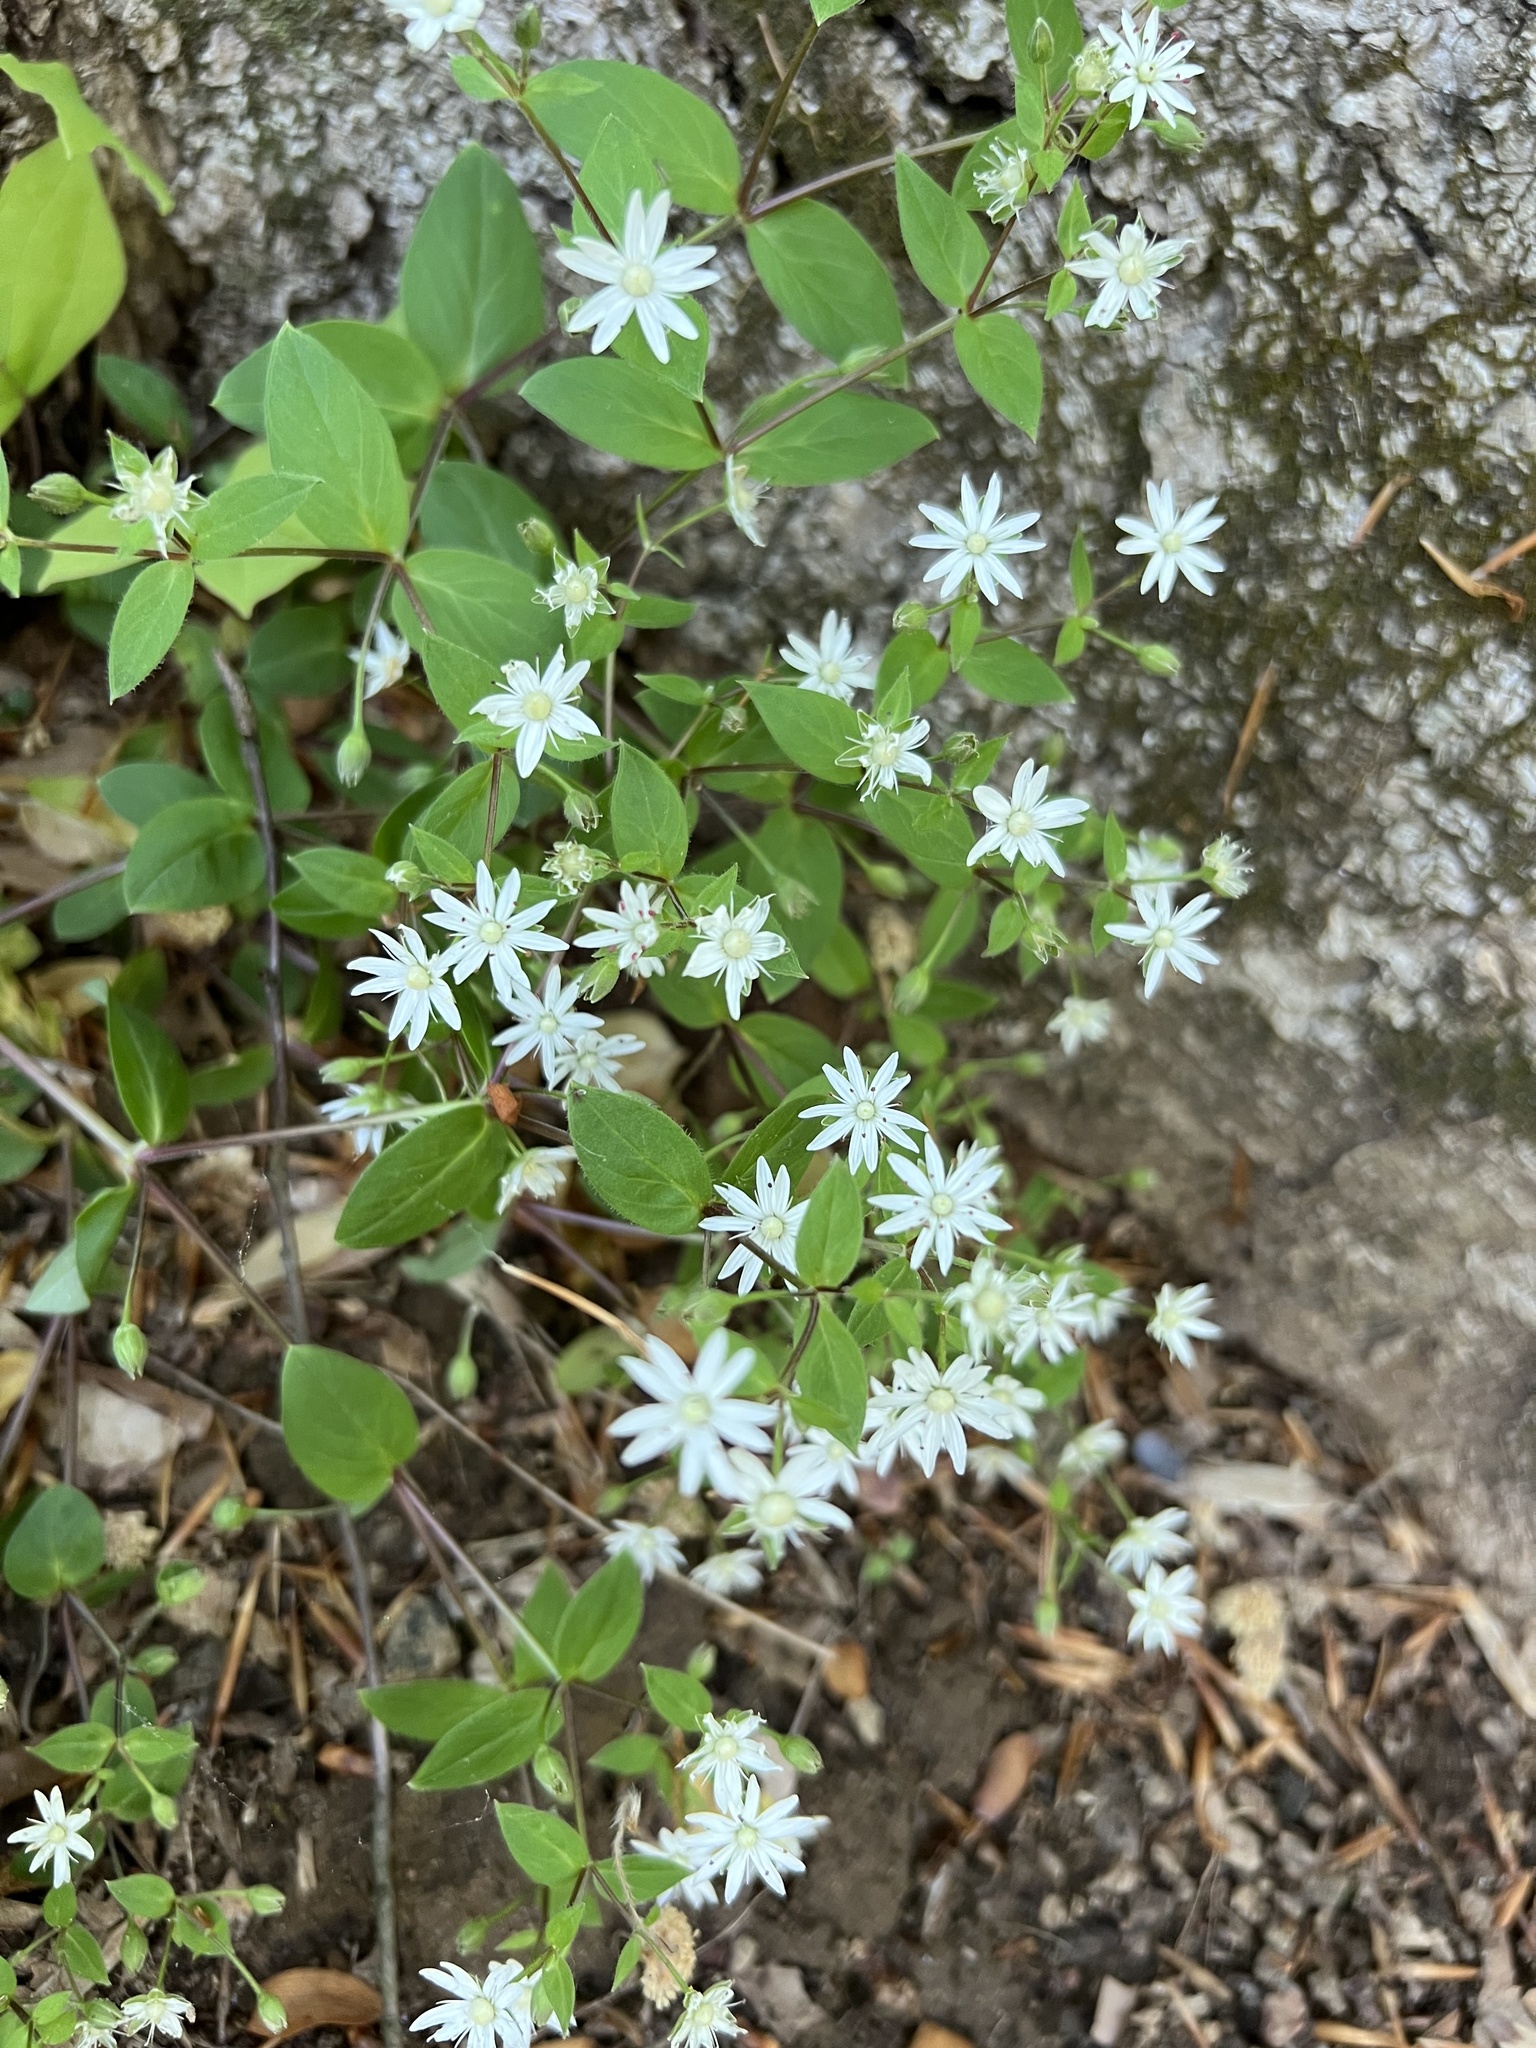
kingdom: Plantae
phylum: Tracheophyta
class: Magnoliopsida
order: Caryophyllales
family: Caryophyllaceae
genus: Stellaria
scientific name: Stellaria pubera
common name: Star chickweed
